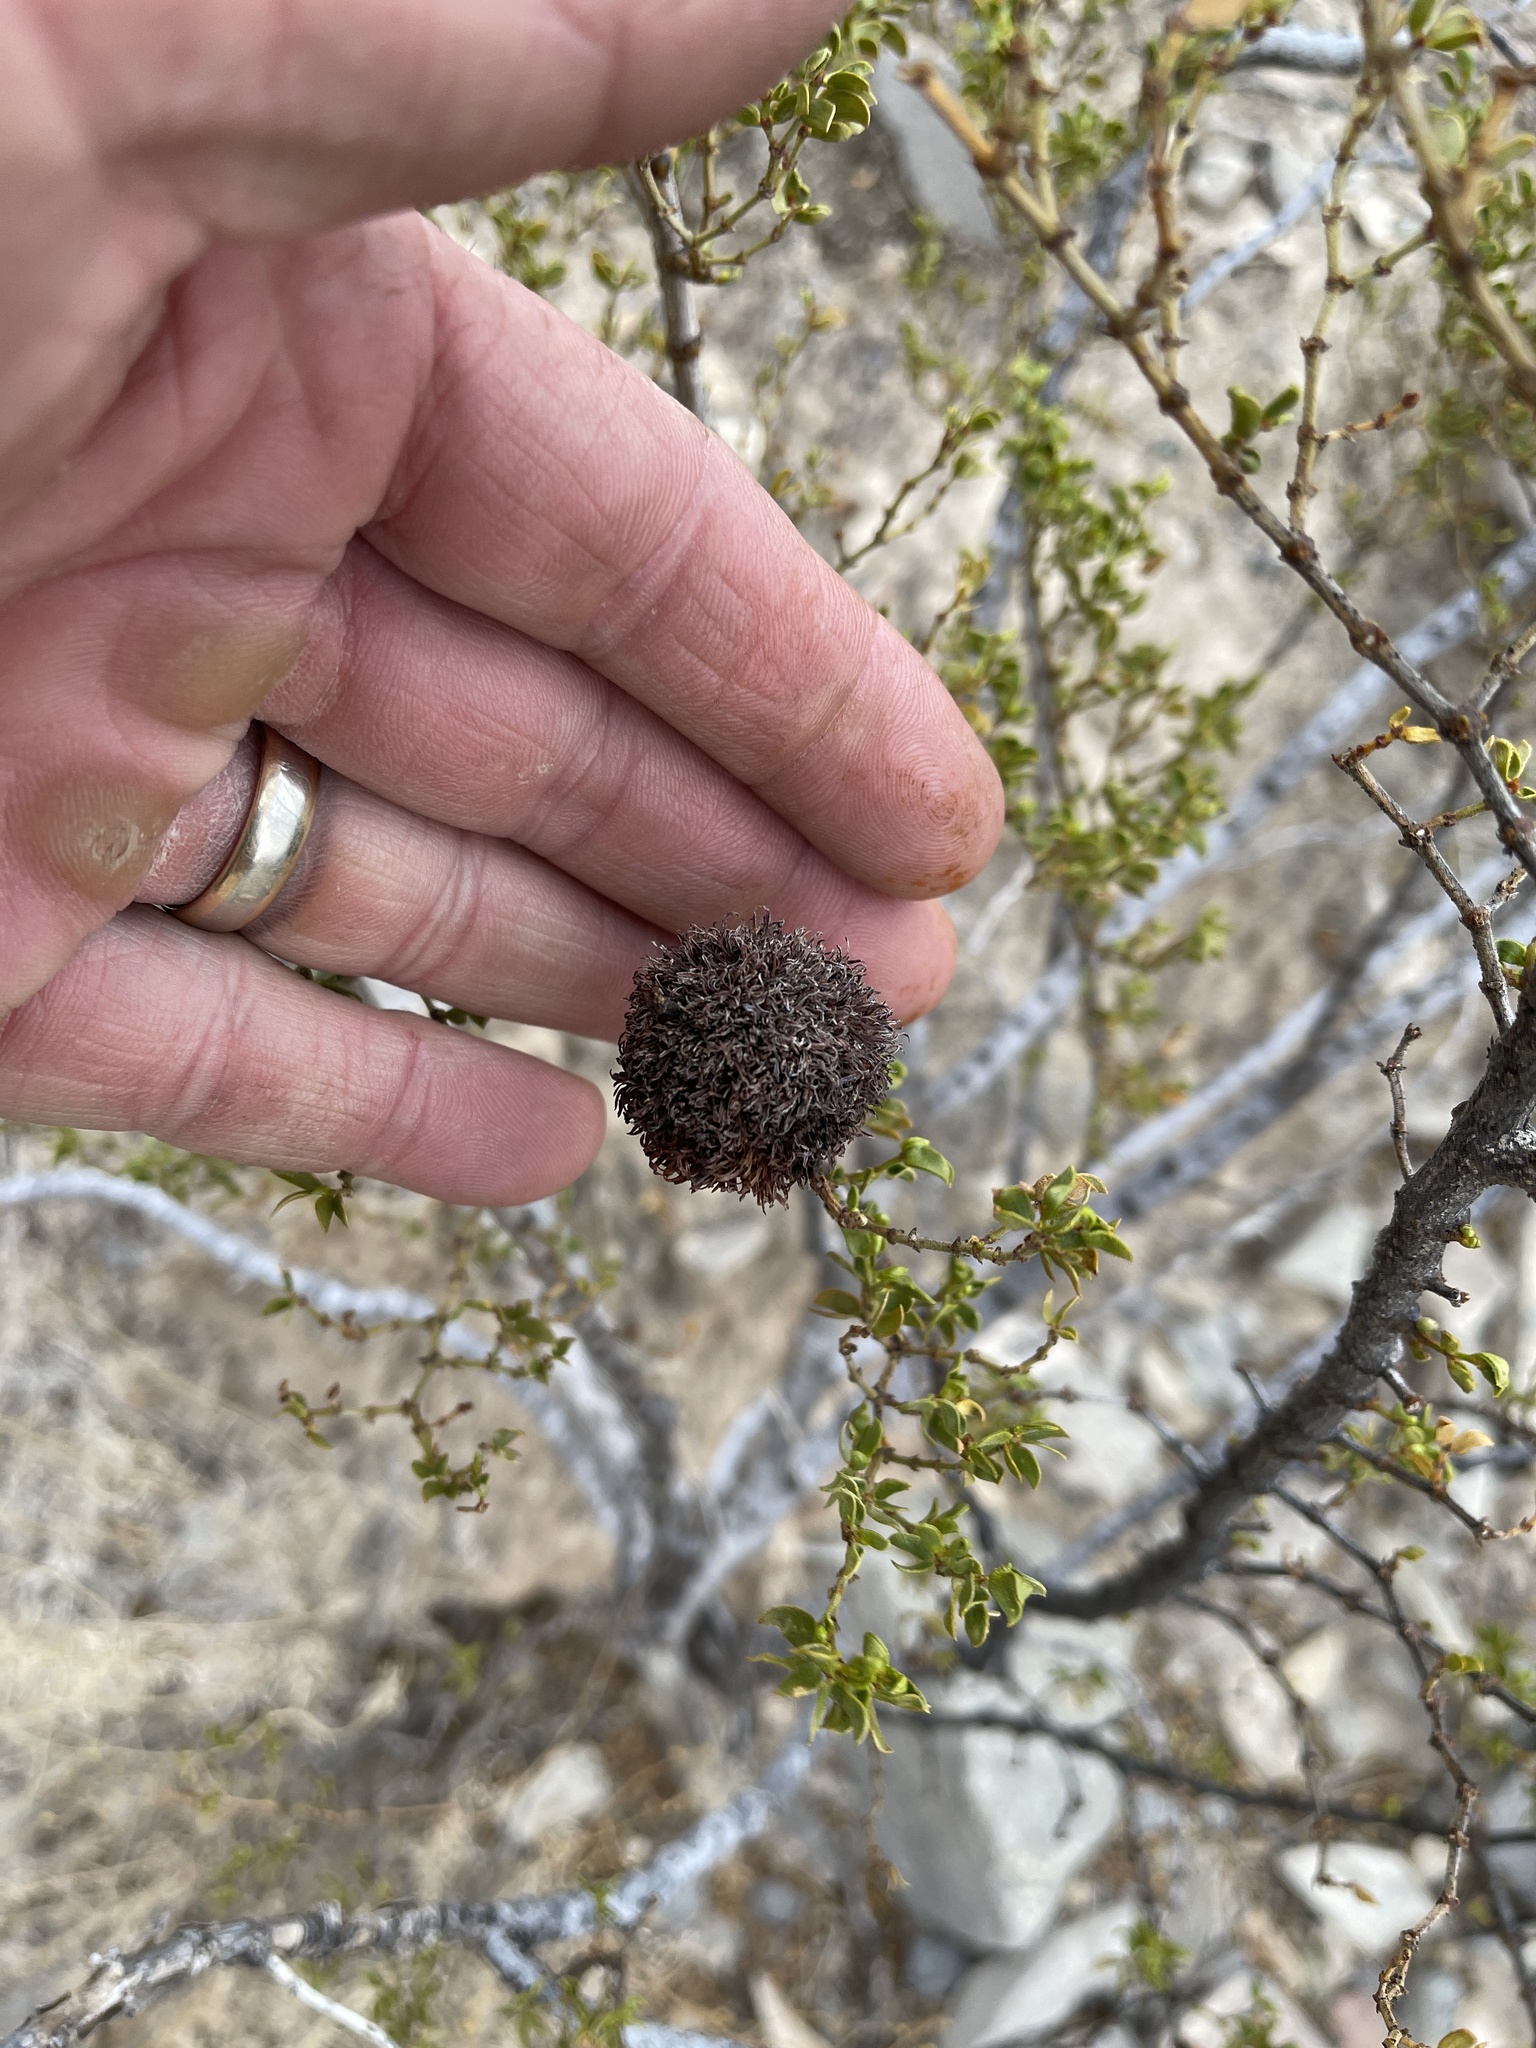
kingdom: Animalia
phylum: Arthropoda
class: Insecta
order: Diptera
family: Cecidomyiidae
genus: Asphondylia
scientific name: Asphondylia auripila
